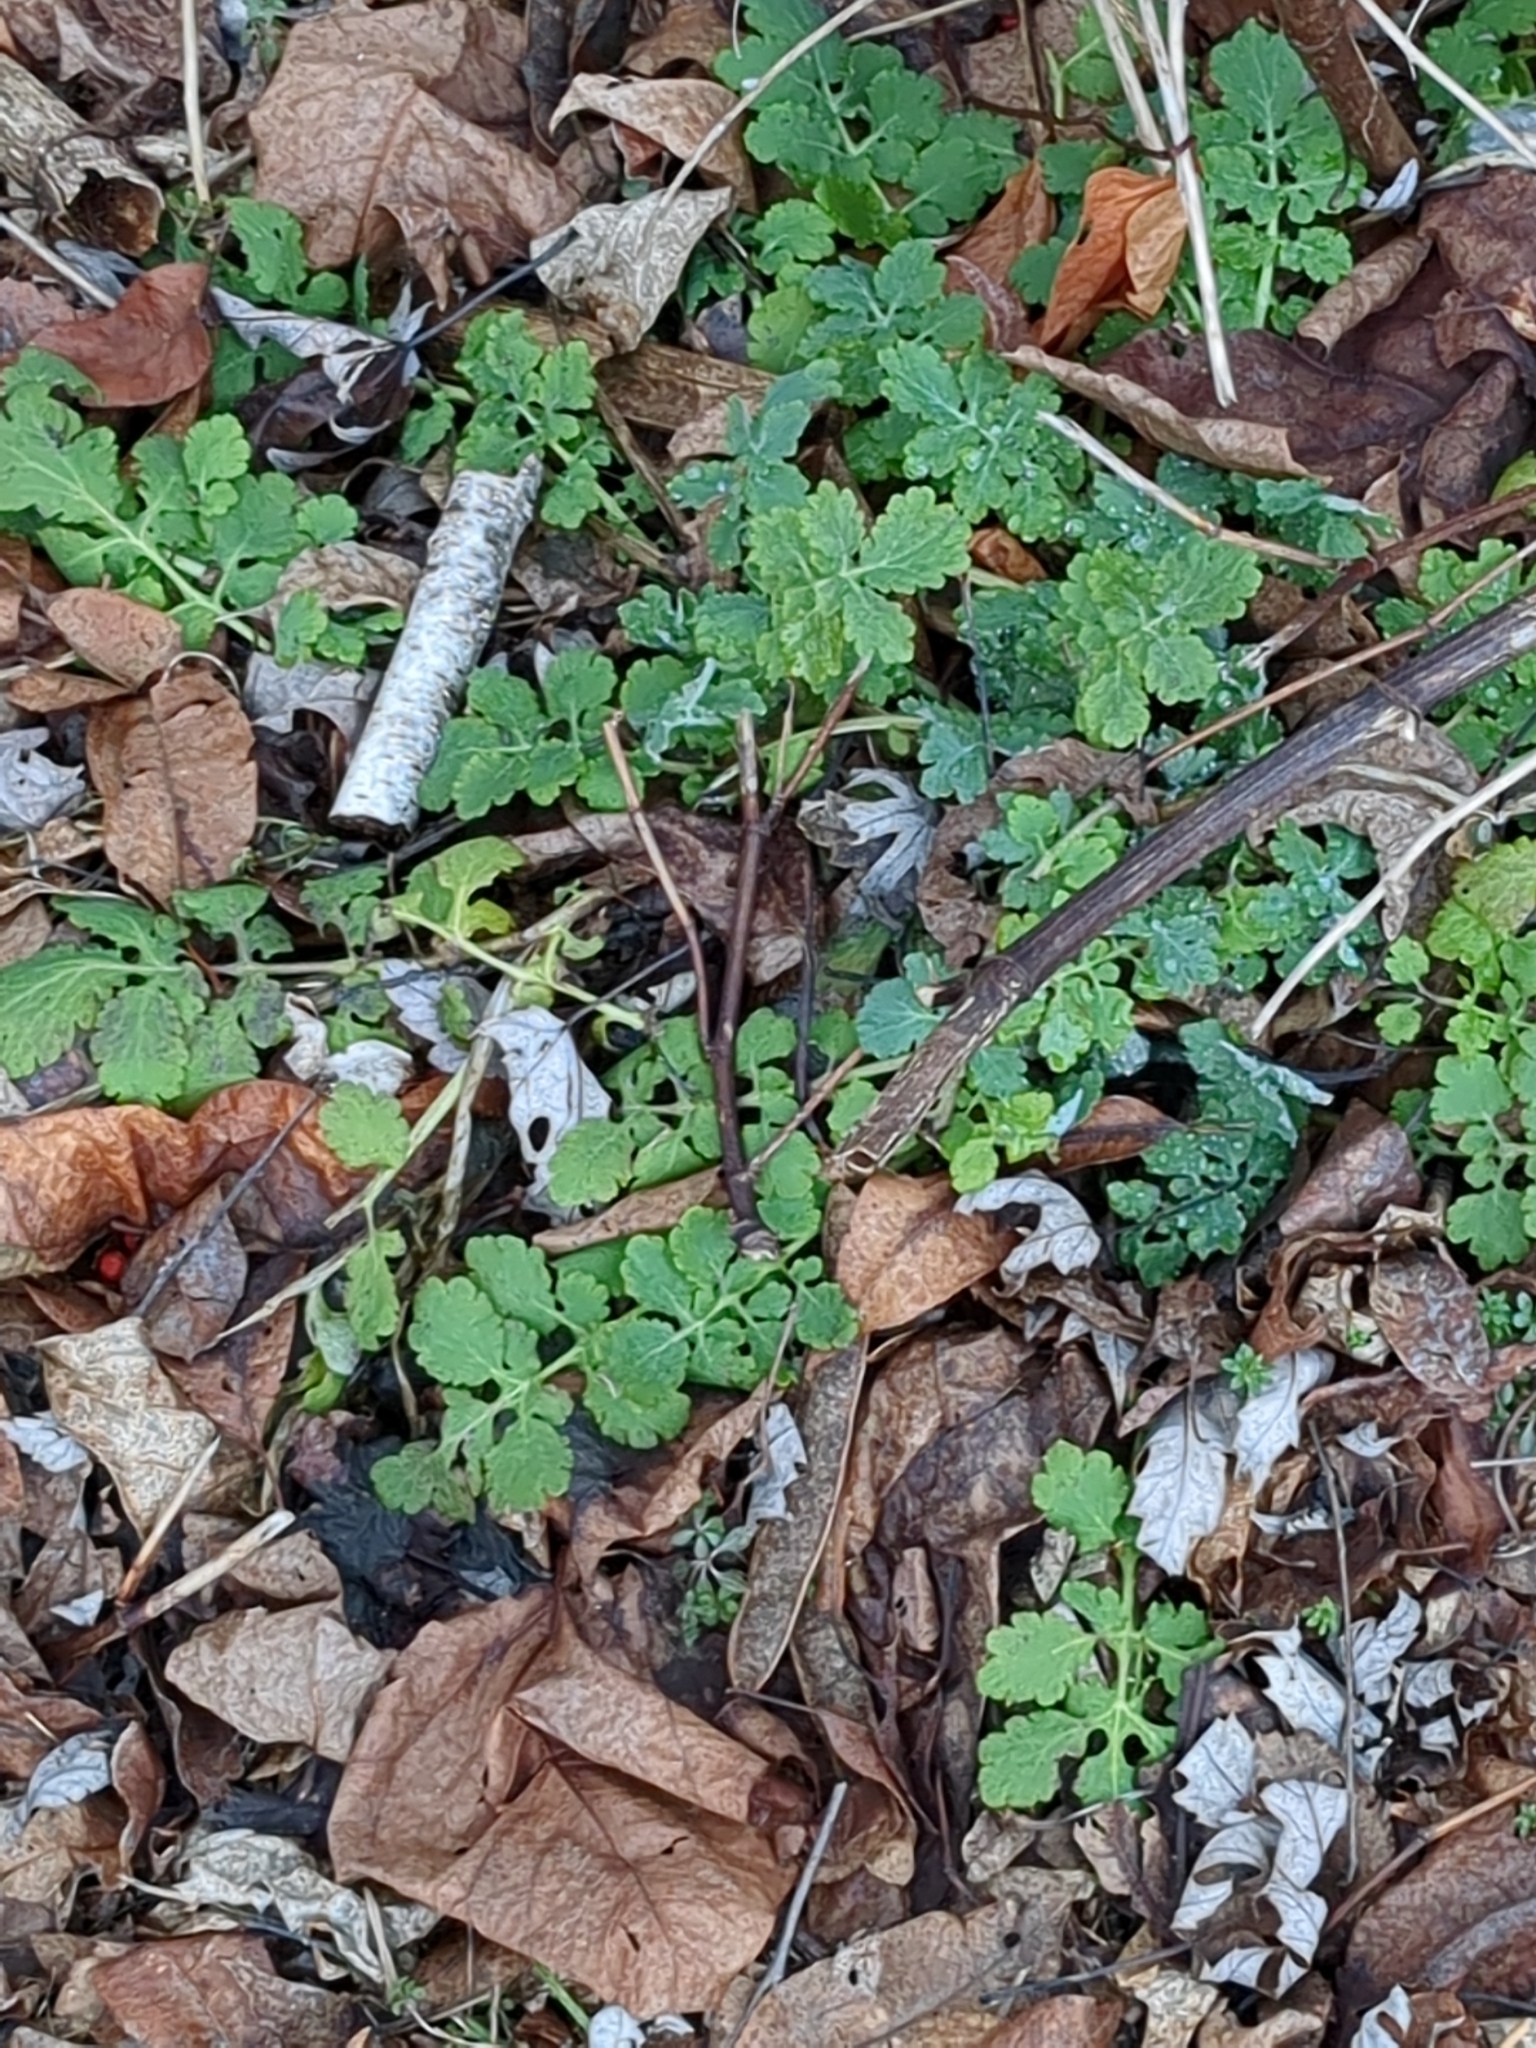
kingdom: Plantae
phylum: Tracheophyta
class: Magnoliopsida
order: Ranunculales
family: Papaveraceae
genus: Chelidonium
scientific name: Chelidonium majus
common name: Greater celandine
